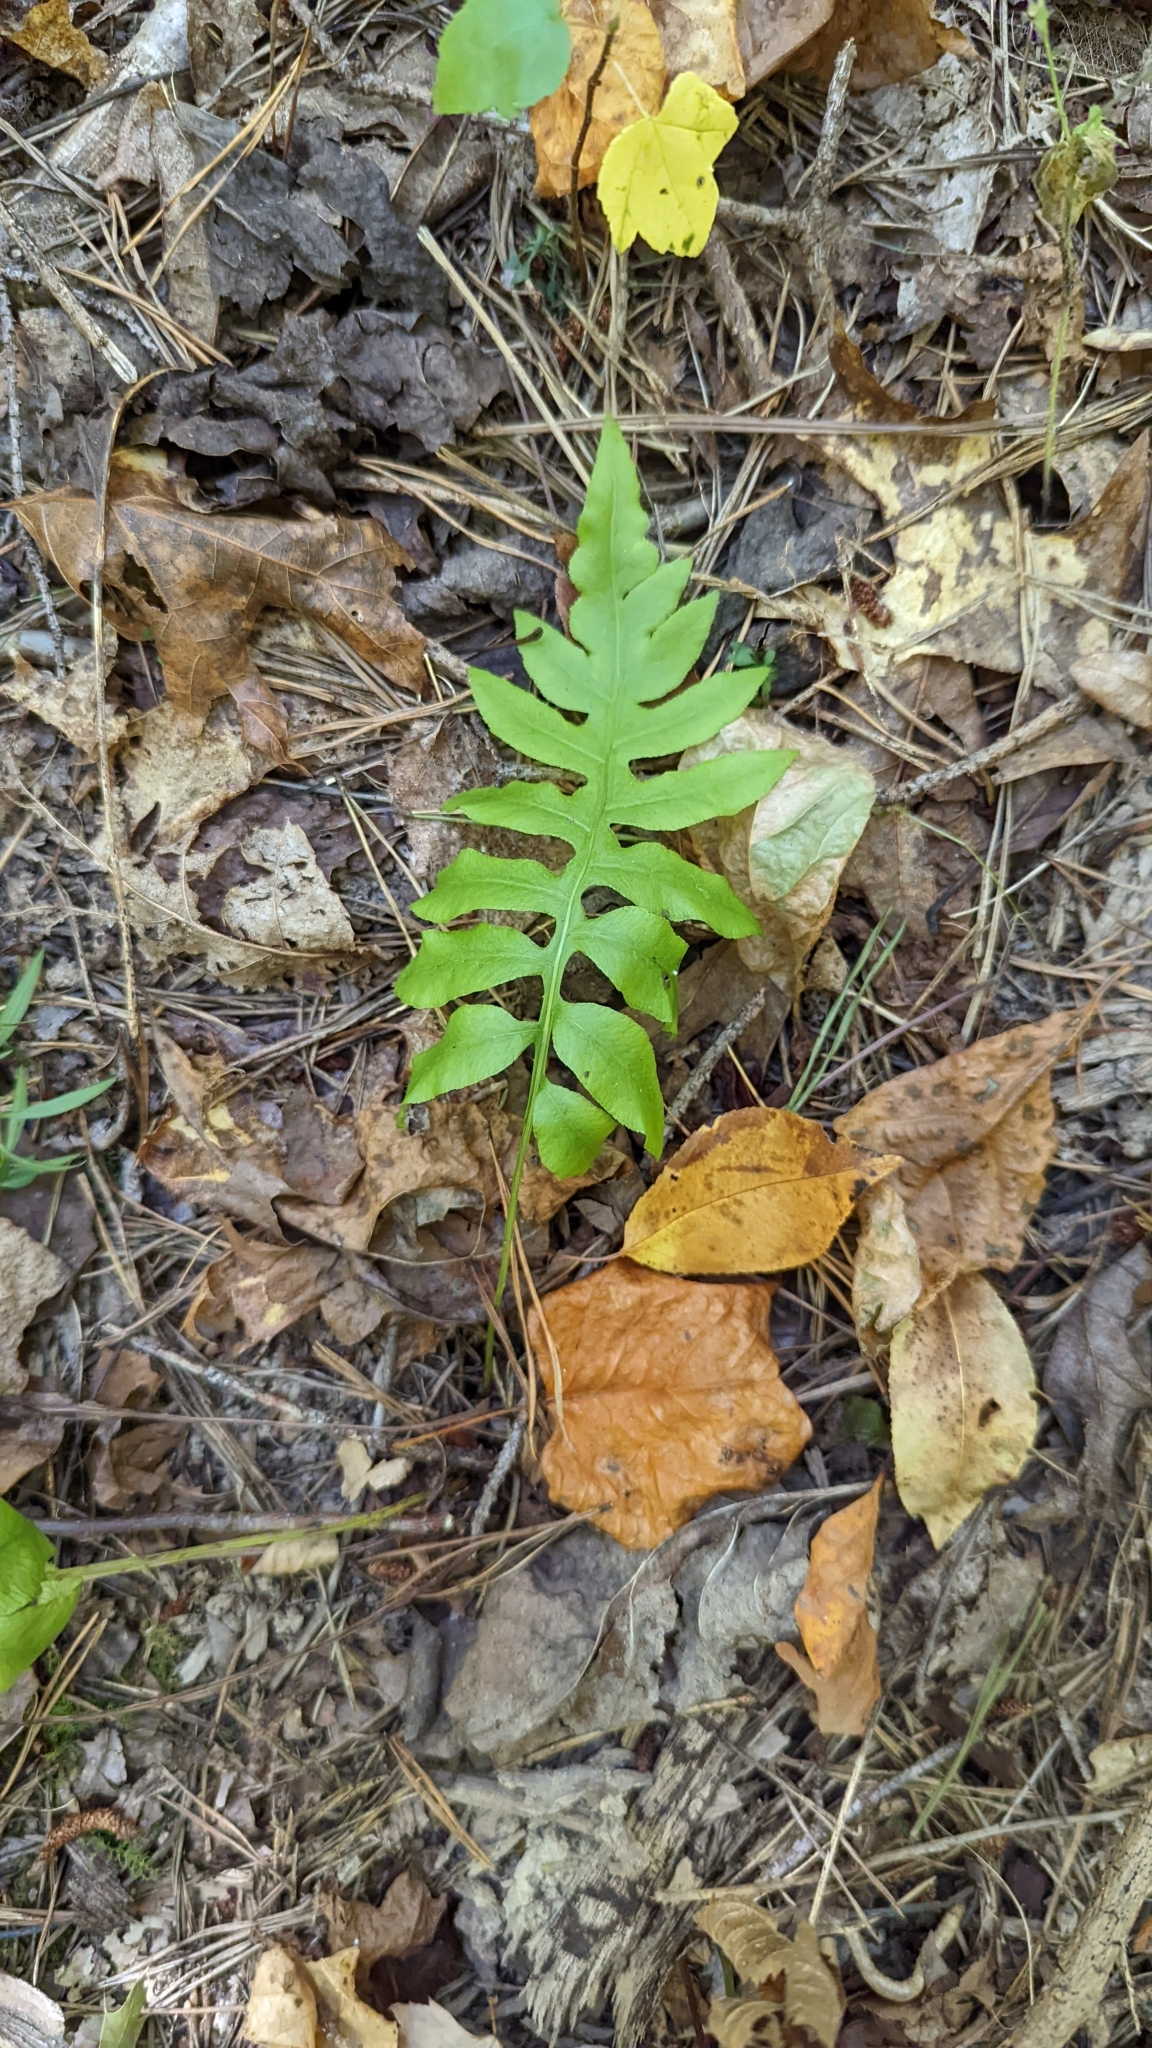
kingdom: Plantae
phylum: Tracheophyta
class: Polypodiopsida
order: Polypodiales
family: Blechnaceae
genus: Lorinseria
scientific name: Lorinseria areolata
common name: Dwarf chain fern
